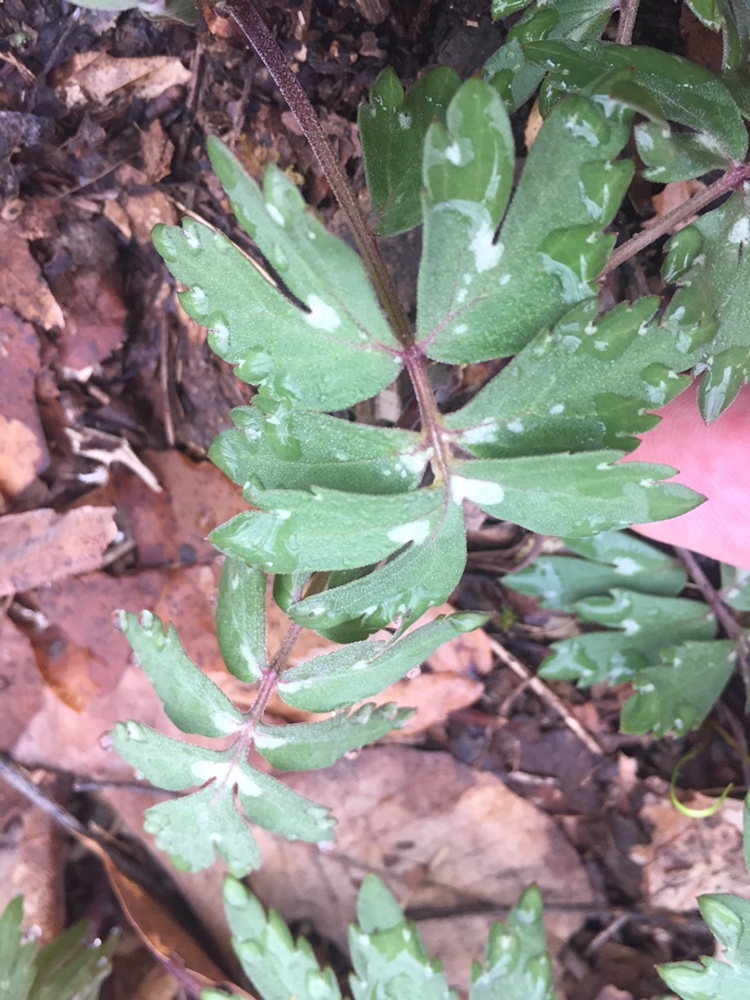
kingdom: Plantae
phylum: Tracheophyta
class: Magnoliopsida
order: Boraginales
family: Hydrophyllaceae
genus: Hydrophyllum
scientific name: Hydrophyllum virginianum
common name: Virginia waterleaf
